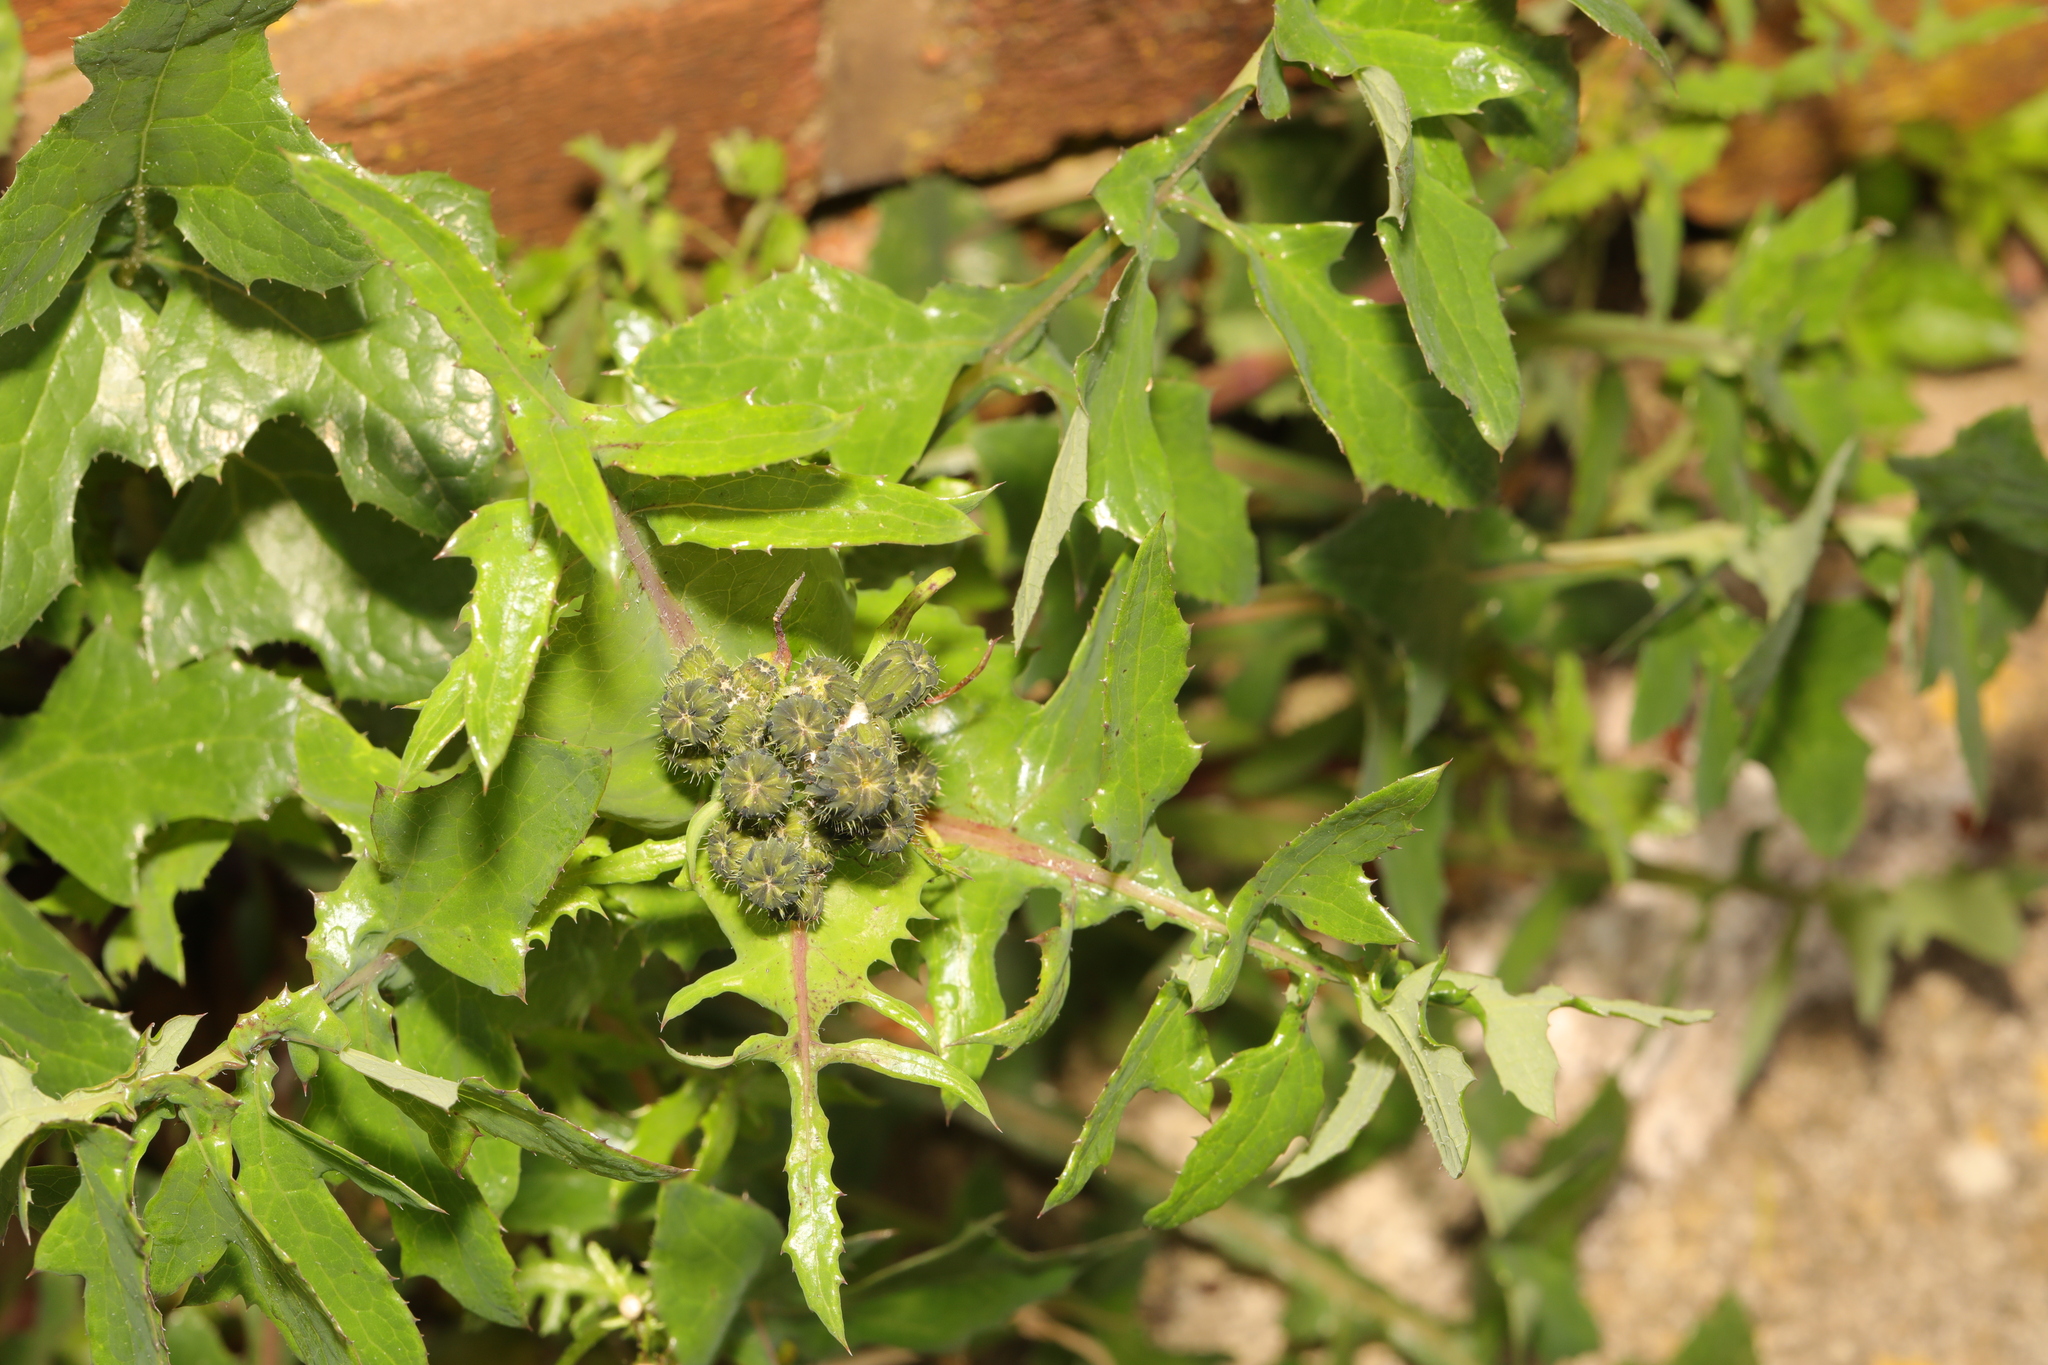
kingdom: Plantae
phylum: Tracheophyta
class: Magnoliopsida
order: Asterales
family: Asteraceae
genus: Sonchus
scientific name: Sonchus oleraceus
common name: Common sowthistle
